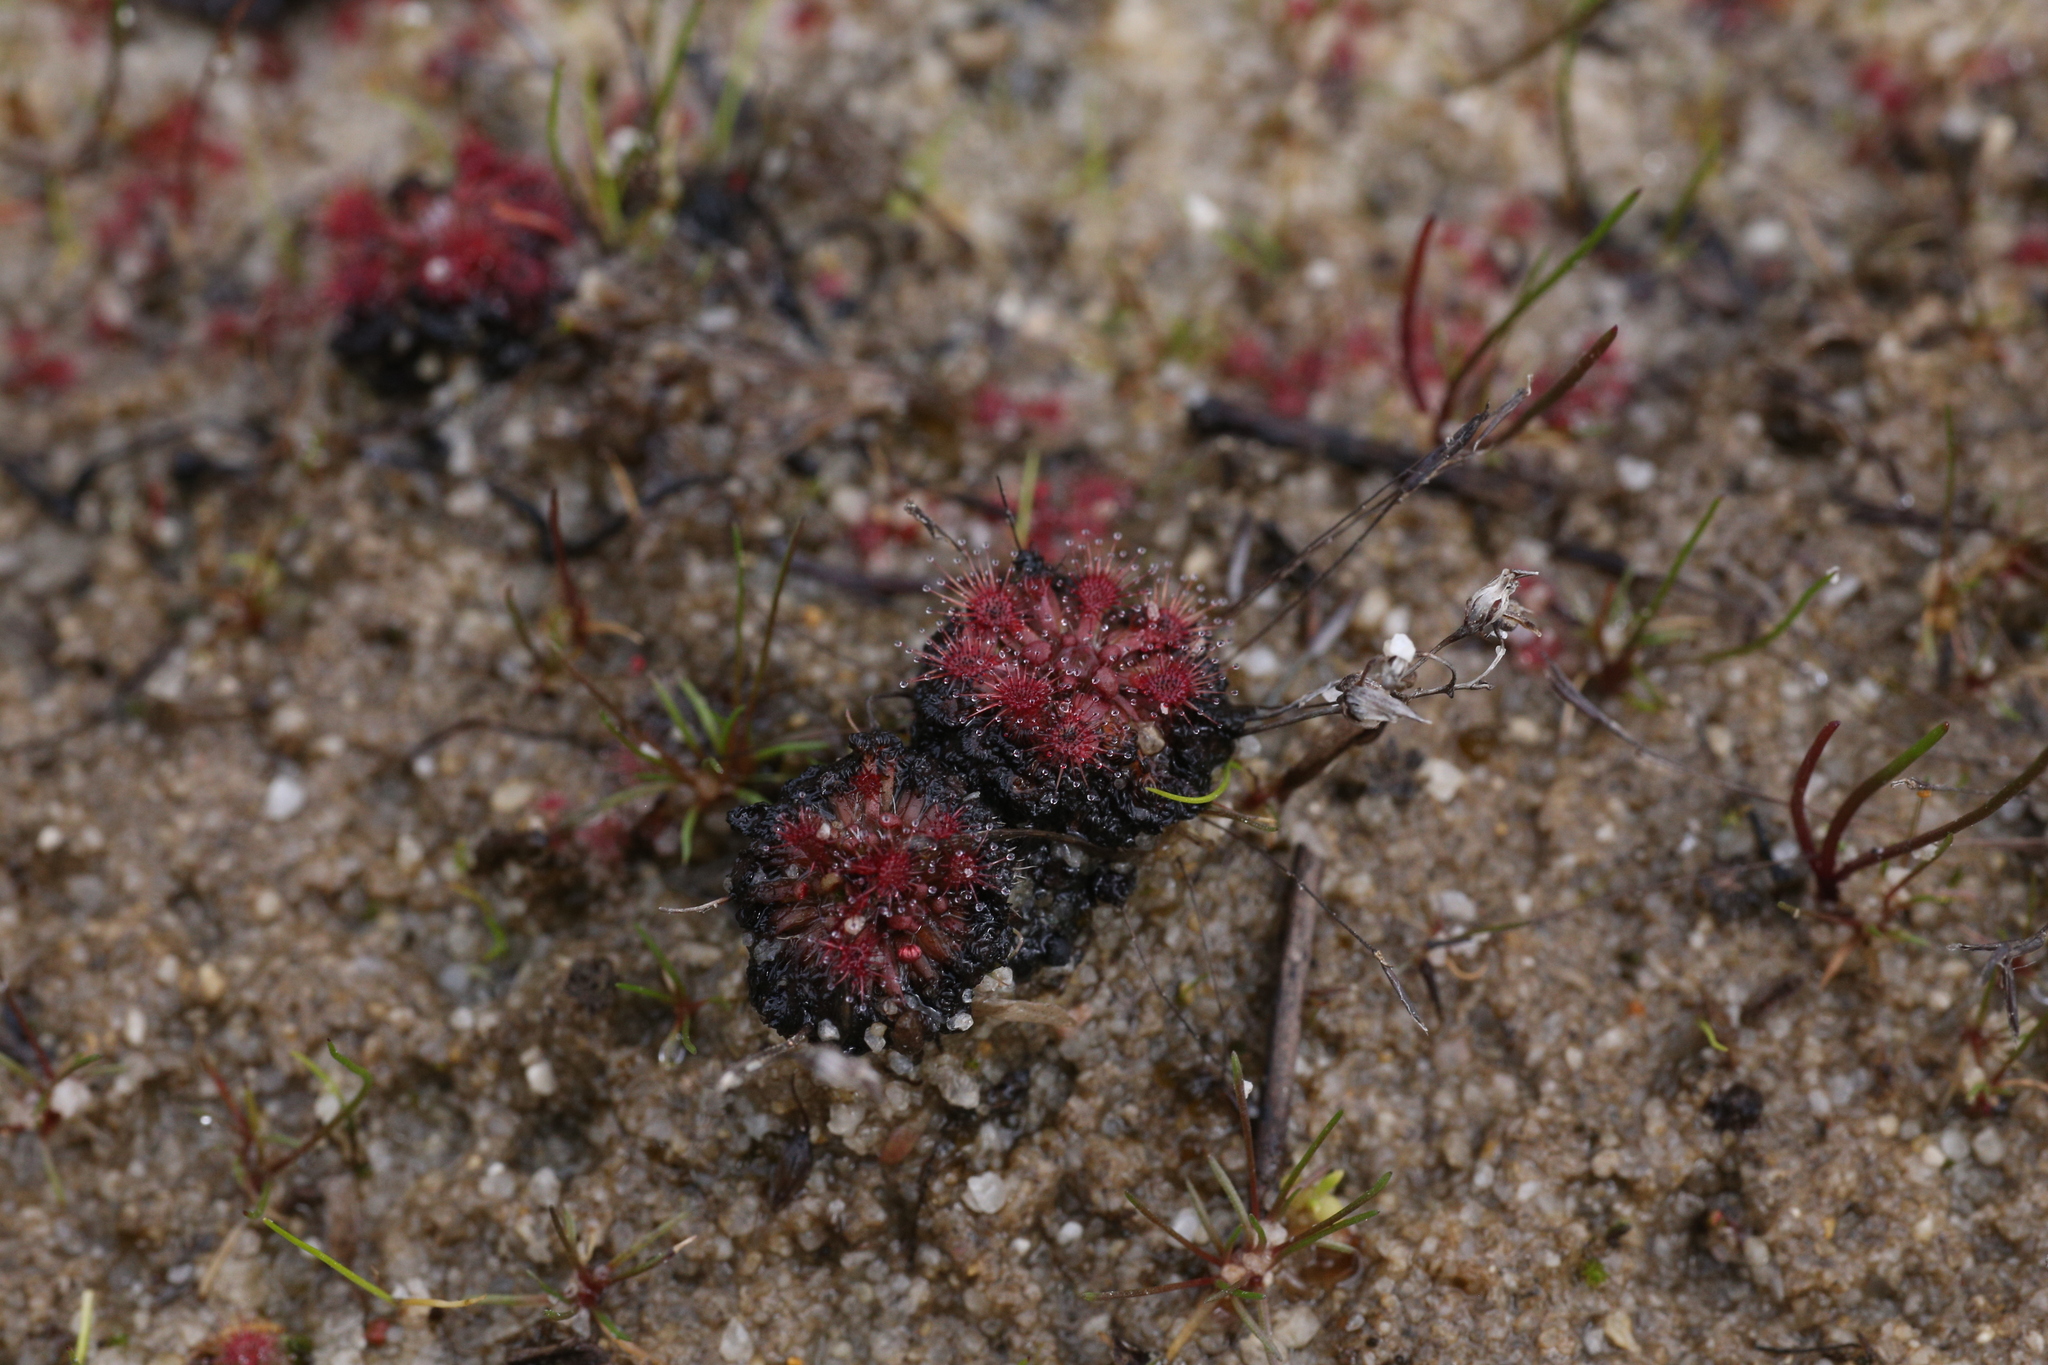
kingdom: Plantae
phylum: Tracheophyta
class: Magnoliopsida
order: Caryophyllales
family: Droseraceae
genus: Drosera
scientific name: Drosera patens
